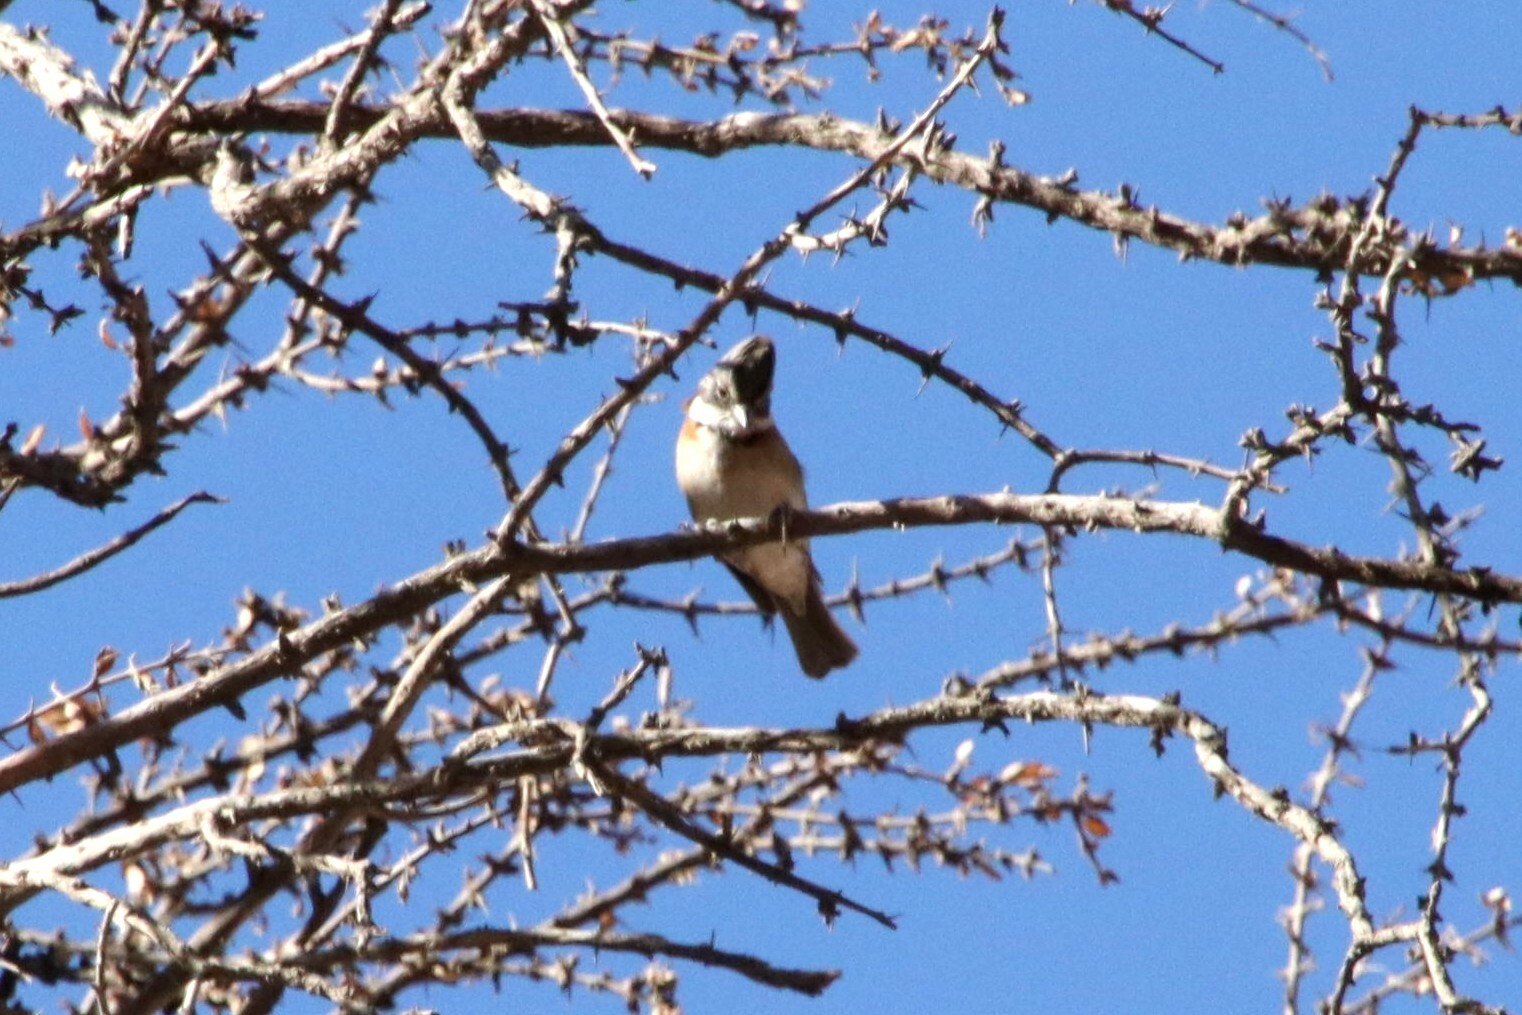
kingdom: Animalia
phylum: Chordata
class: Aves
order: Passeriformes
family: Passerellidae
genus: Zonotrichia
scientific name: Zonotrichia capensis
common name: Rufous-collared sparrow
